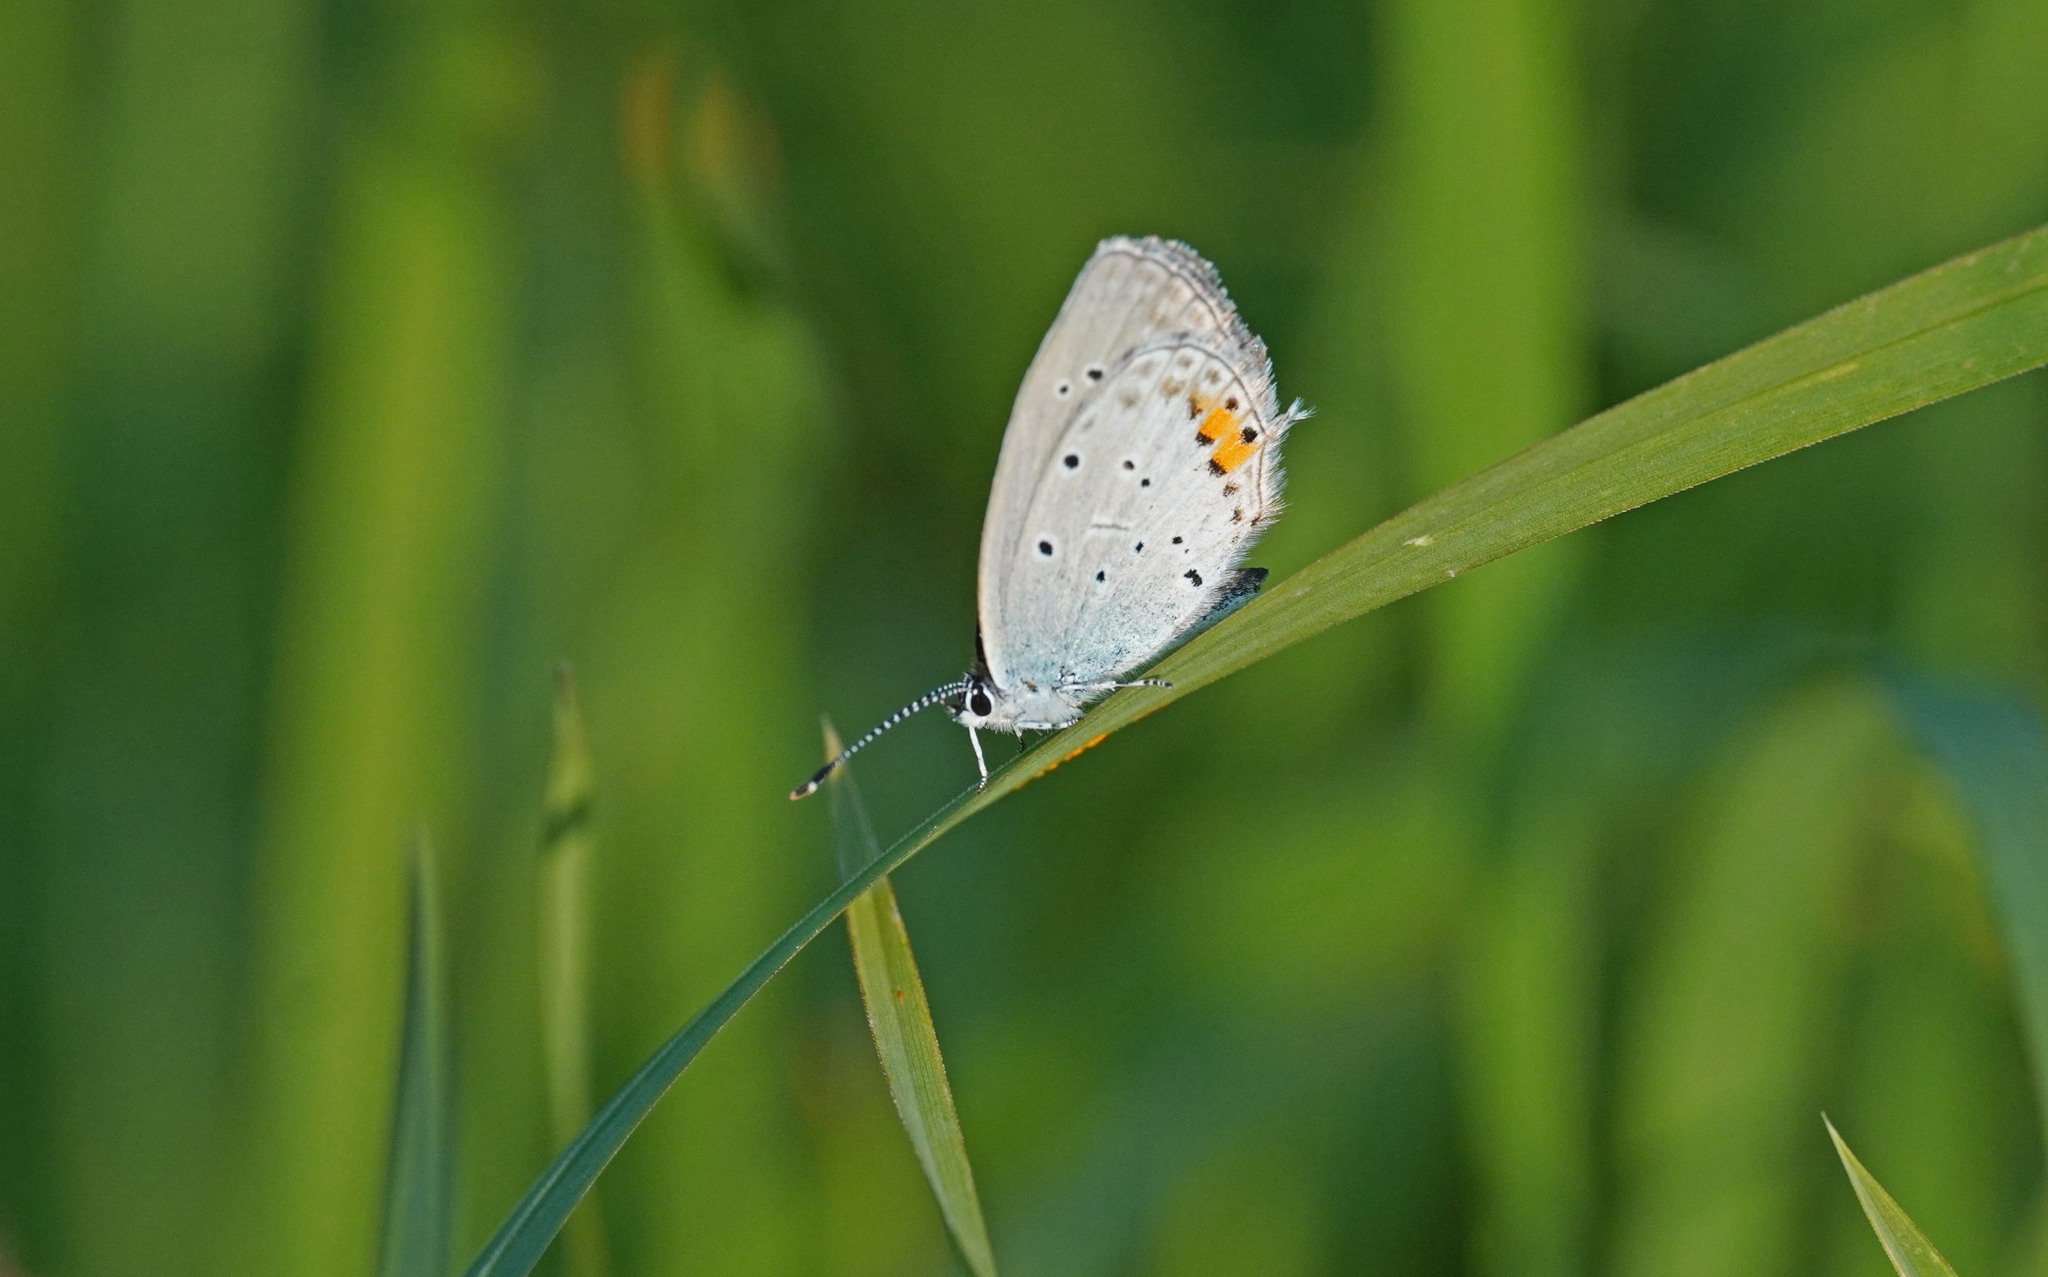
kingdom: Animalia
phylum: Arthropoda
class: Insecta
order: Lepidoptera
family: Lycaenidae
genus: Elkalyce
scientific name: Elkalyce argiades
